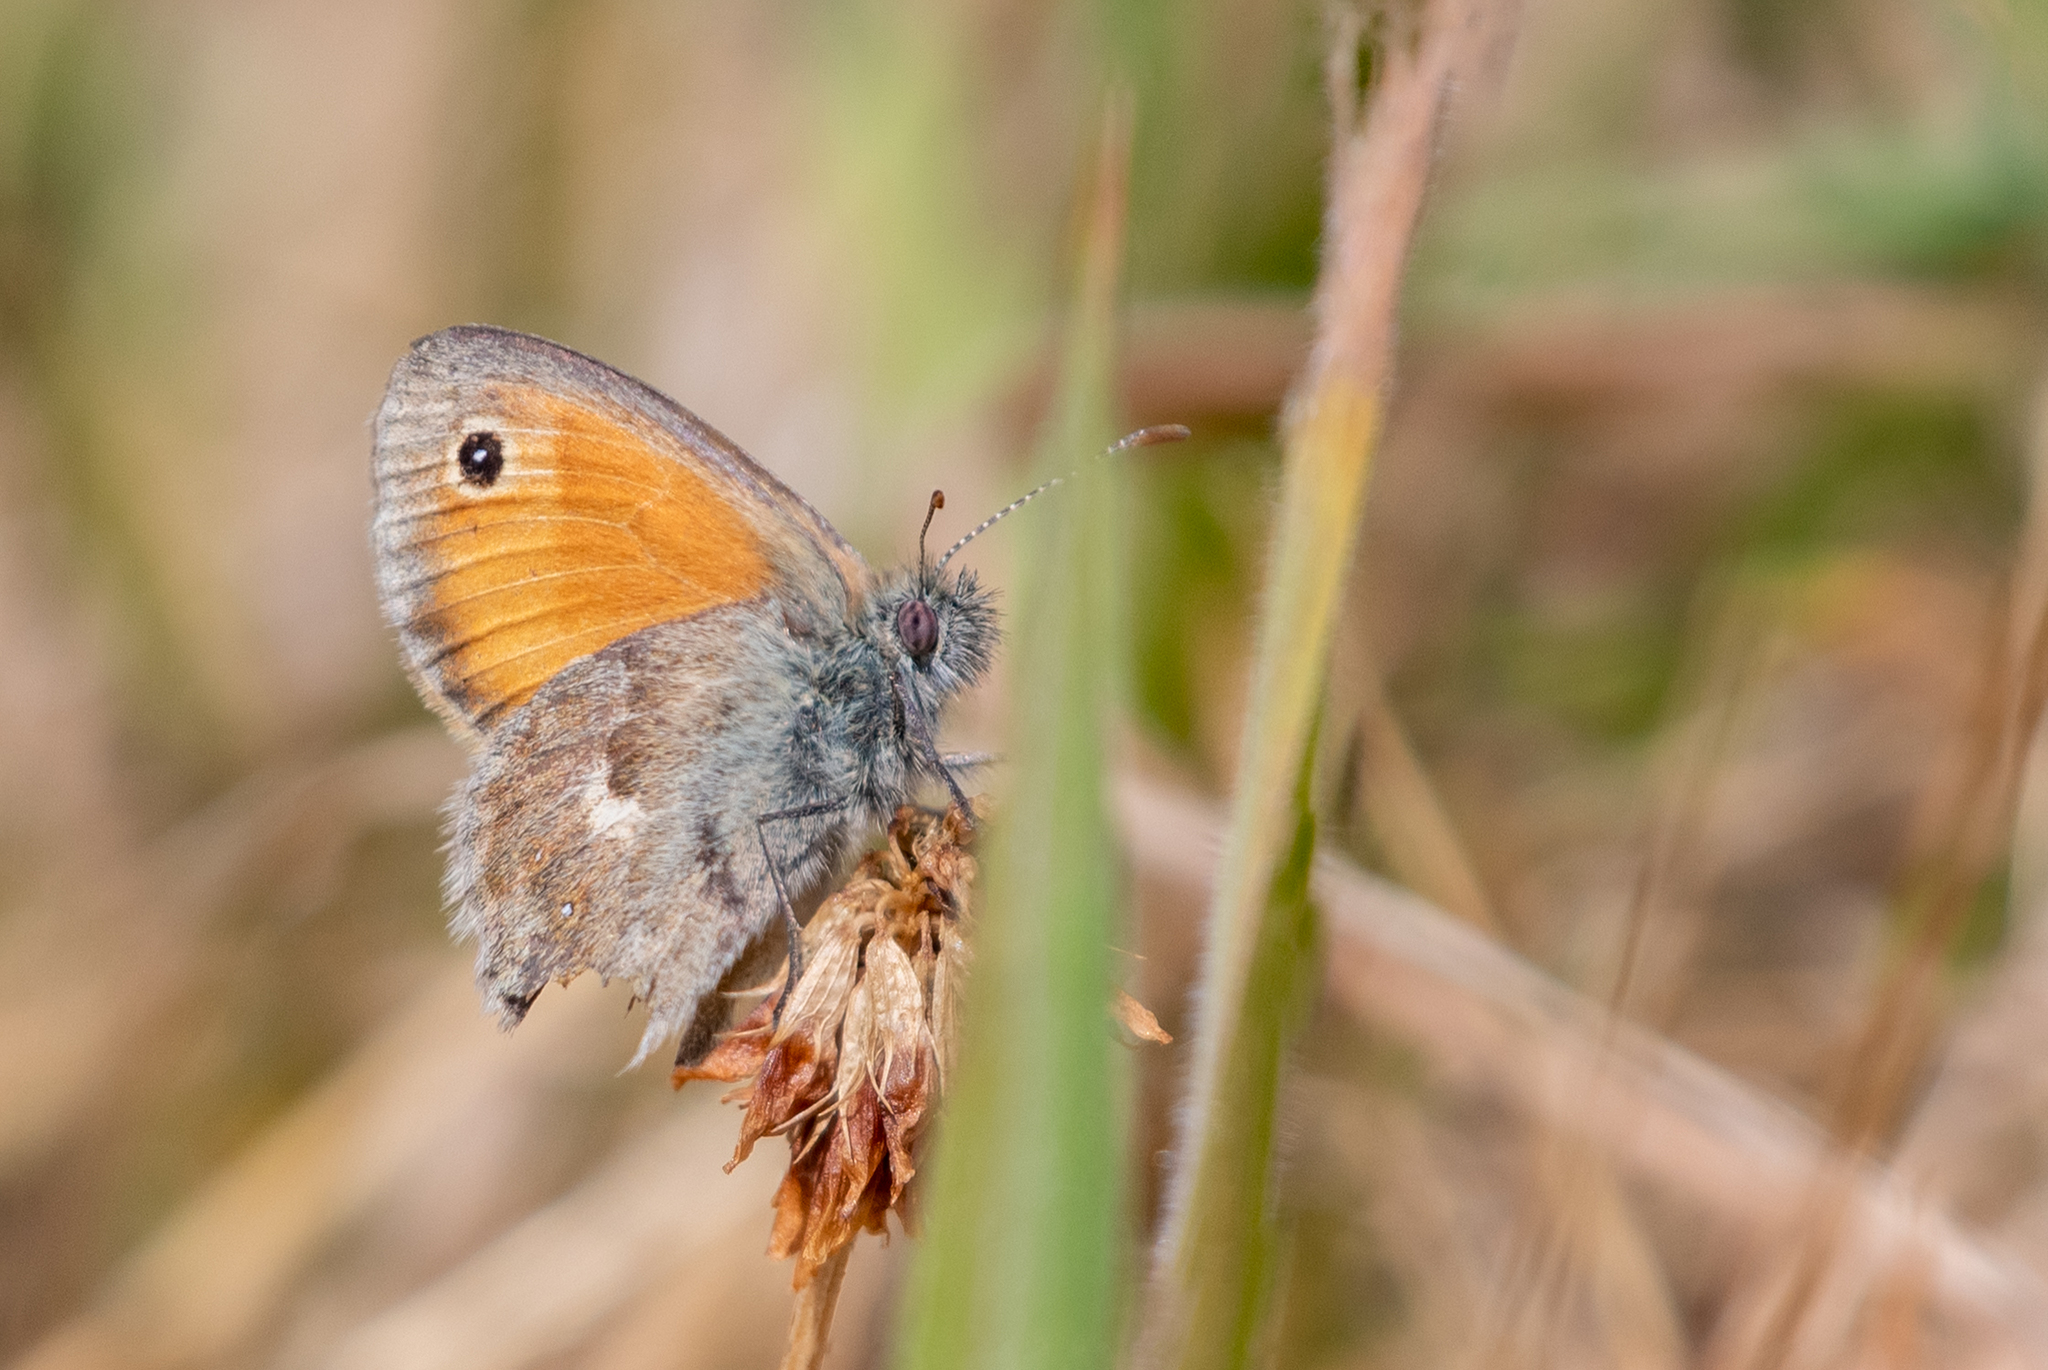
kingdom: Animalia
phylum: Arthropoda
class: Insecta
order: Lepidoptera
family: Nymphalidae
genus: Coenonympha
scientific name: Coenonympha pamphilus
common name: Small heath
